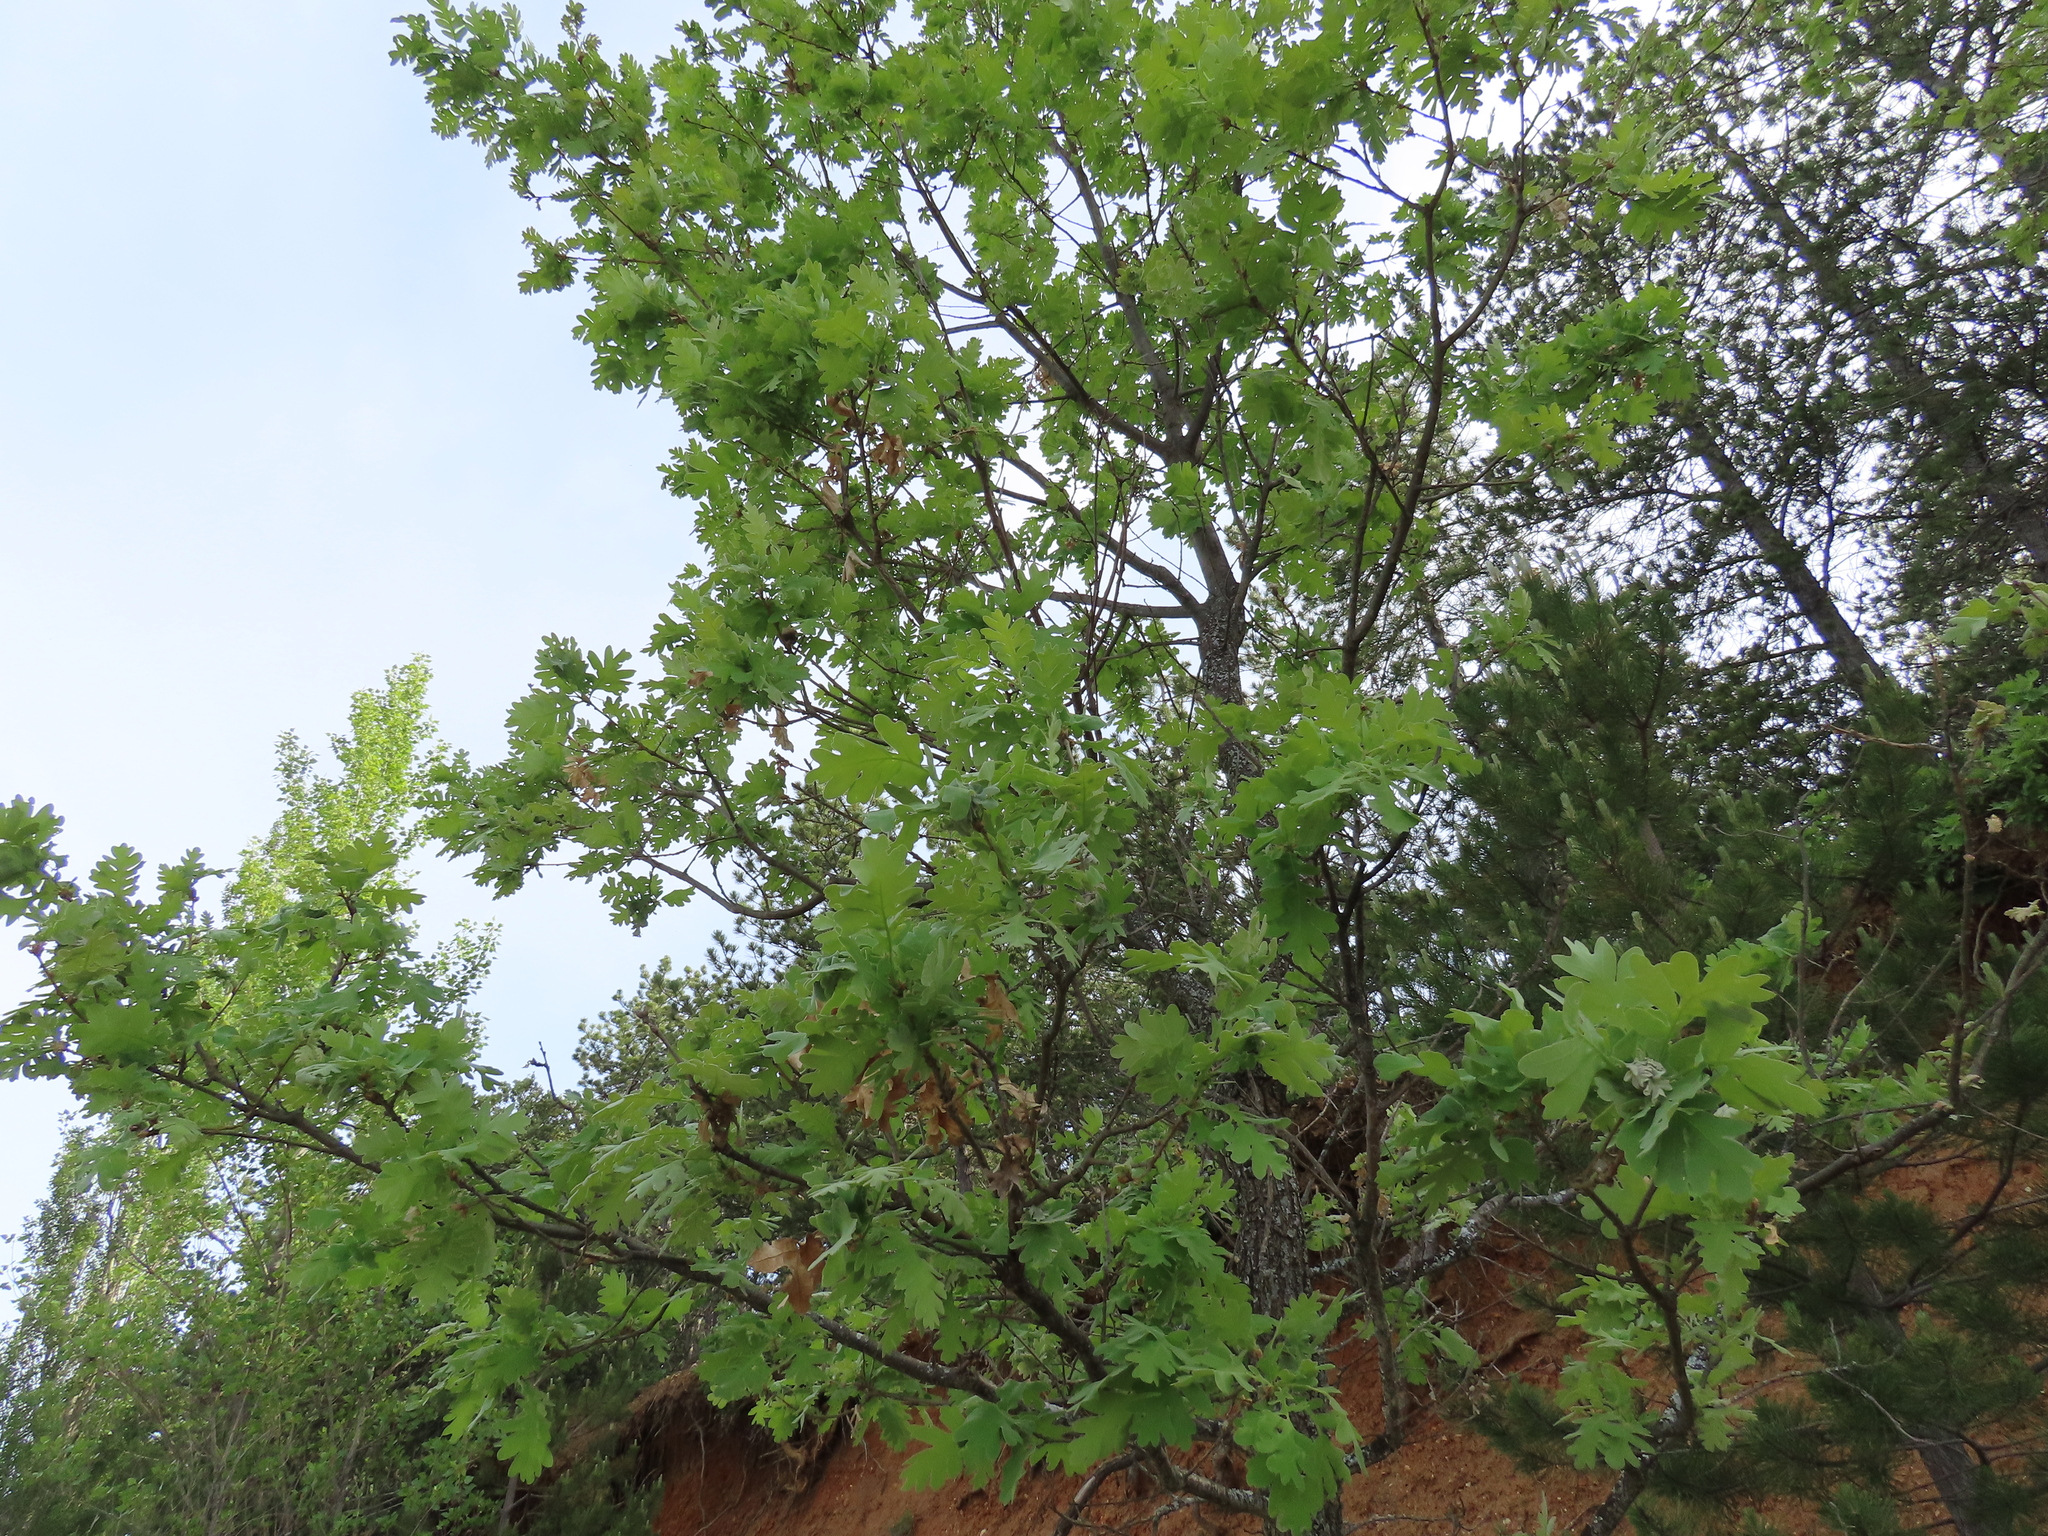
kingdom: Plantae
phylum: Tracheophyta
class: Magnoliopsida
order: Fagales
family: Fagaceae
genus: Quercus
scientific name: Quercus pyrenaica
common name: Pyrenean oak
